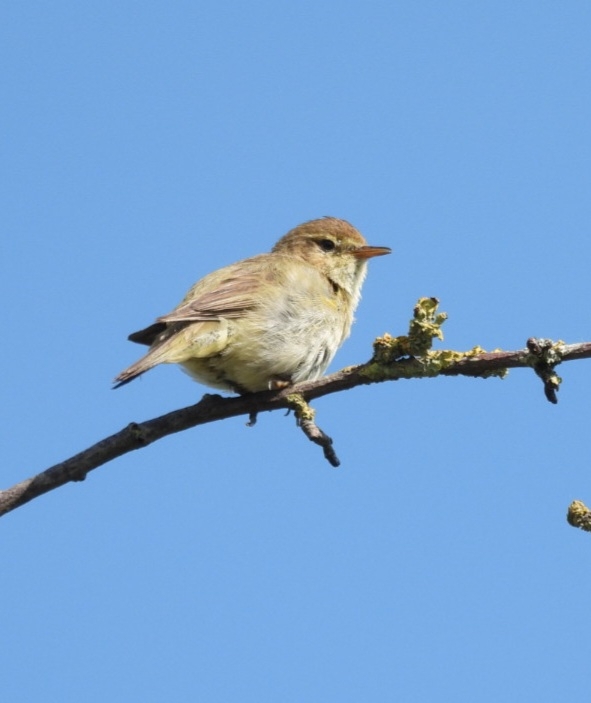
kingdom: Animalia
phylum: Chordata
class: Aves
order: Passeriformes
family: Phylloscopidae
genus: Phylloscopus
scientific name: Phylloscopus collybita
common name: Common chiffchaff
